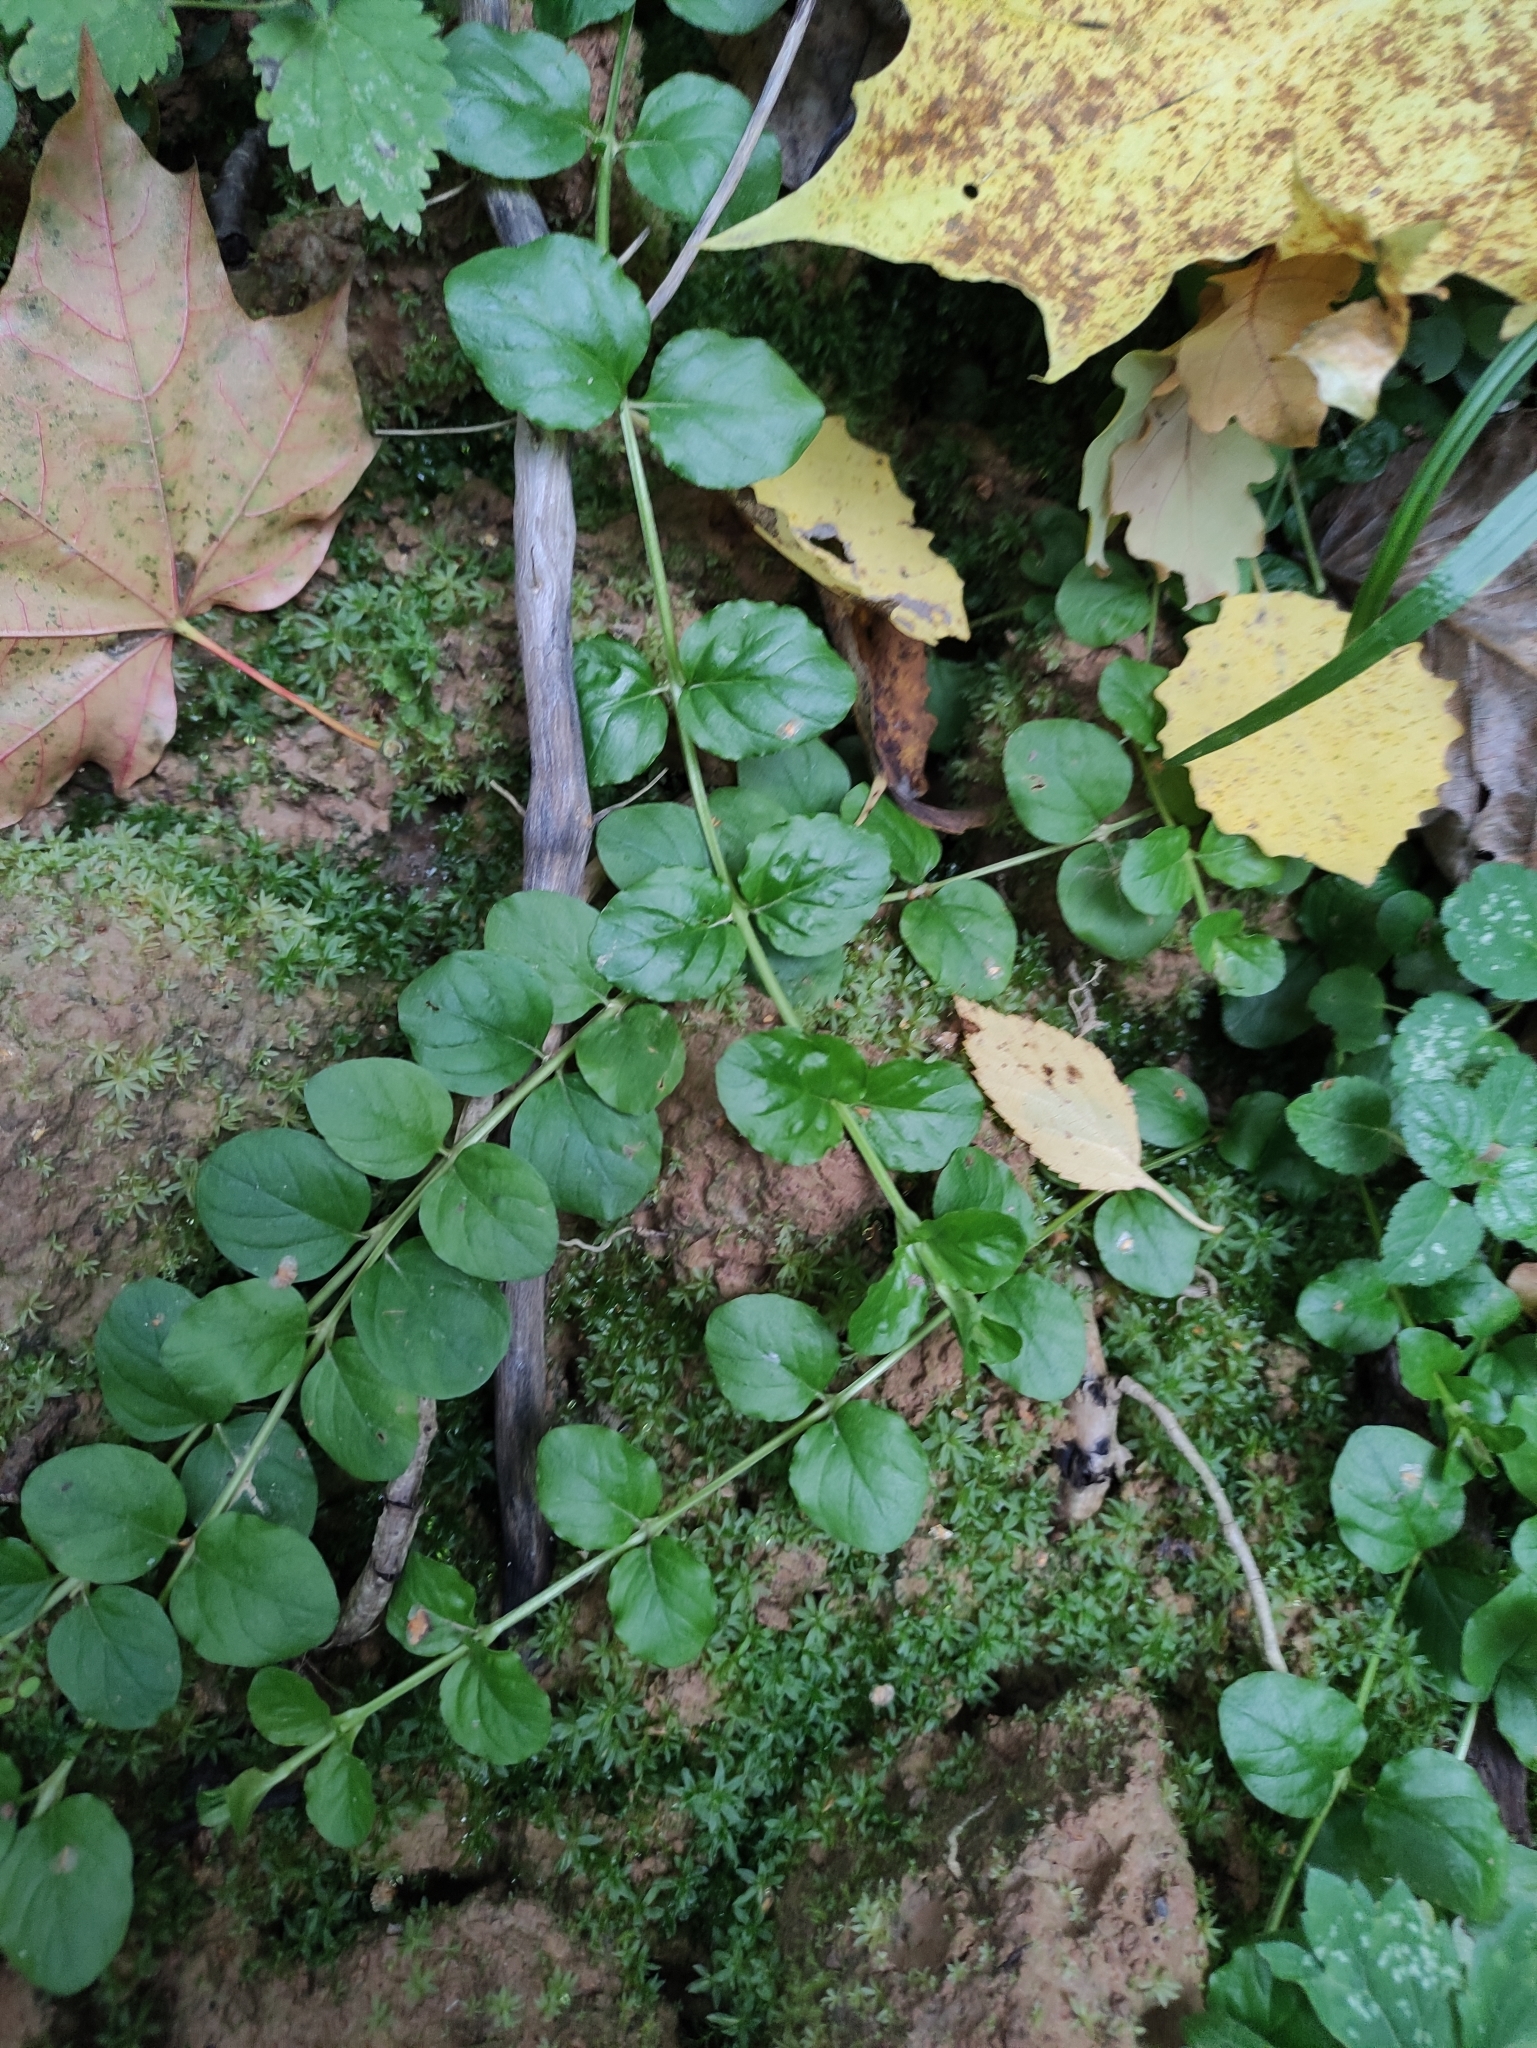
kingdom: Plantae
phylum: Tracheophyta
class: Magnoliopsida
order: Ericales
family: Primulaceae
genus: Lysimachia
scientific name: Lysimachia nummularia
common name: Moneywort
